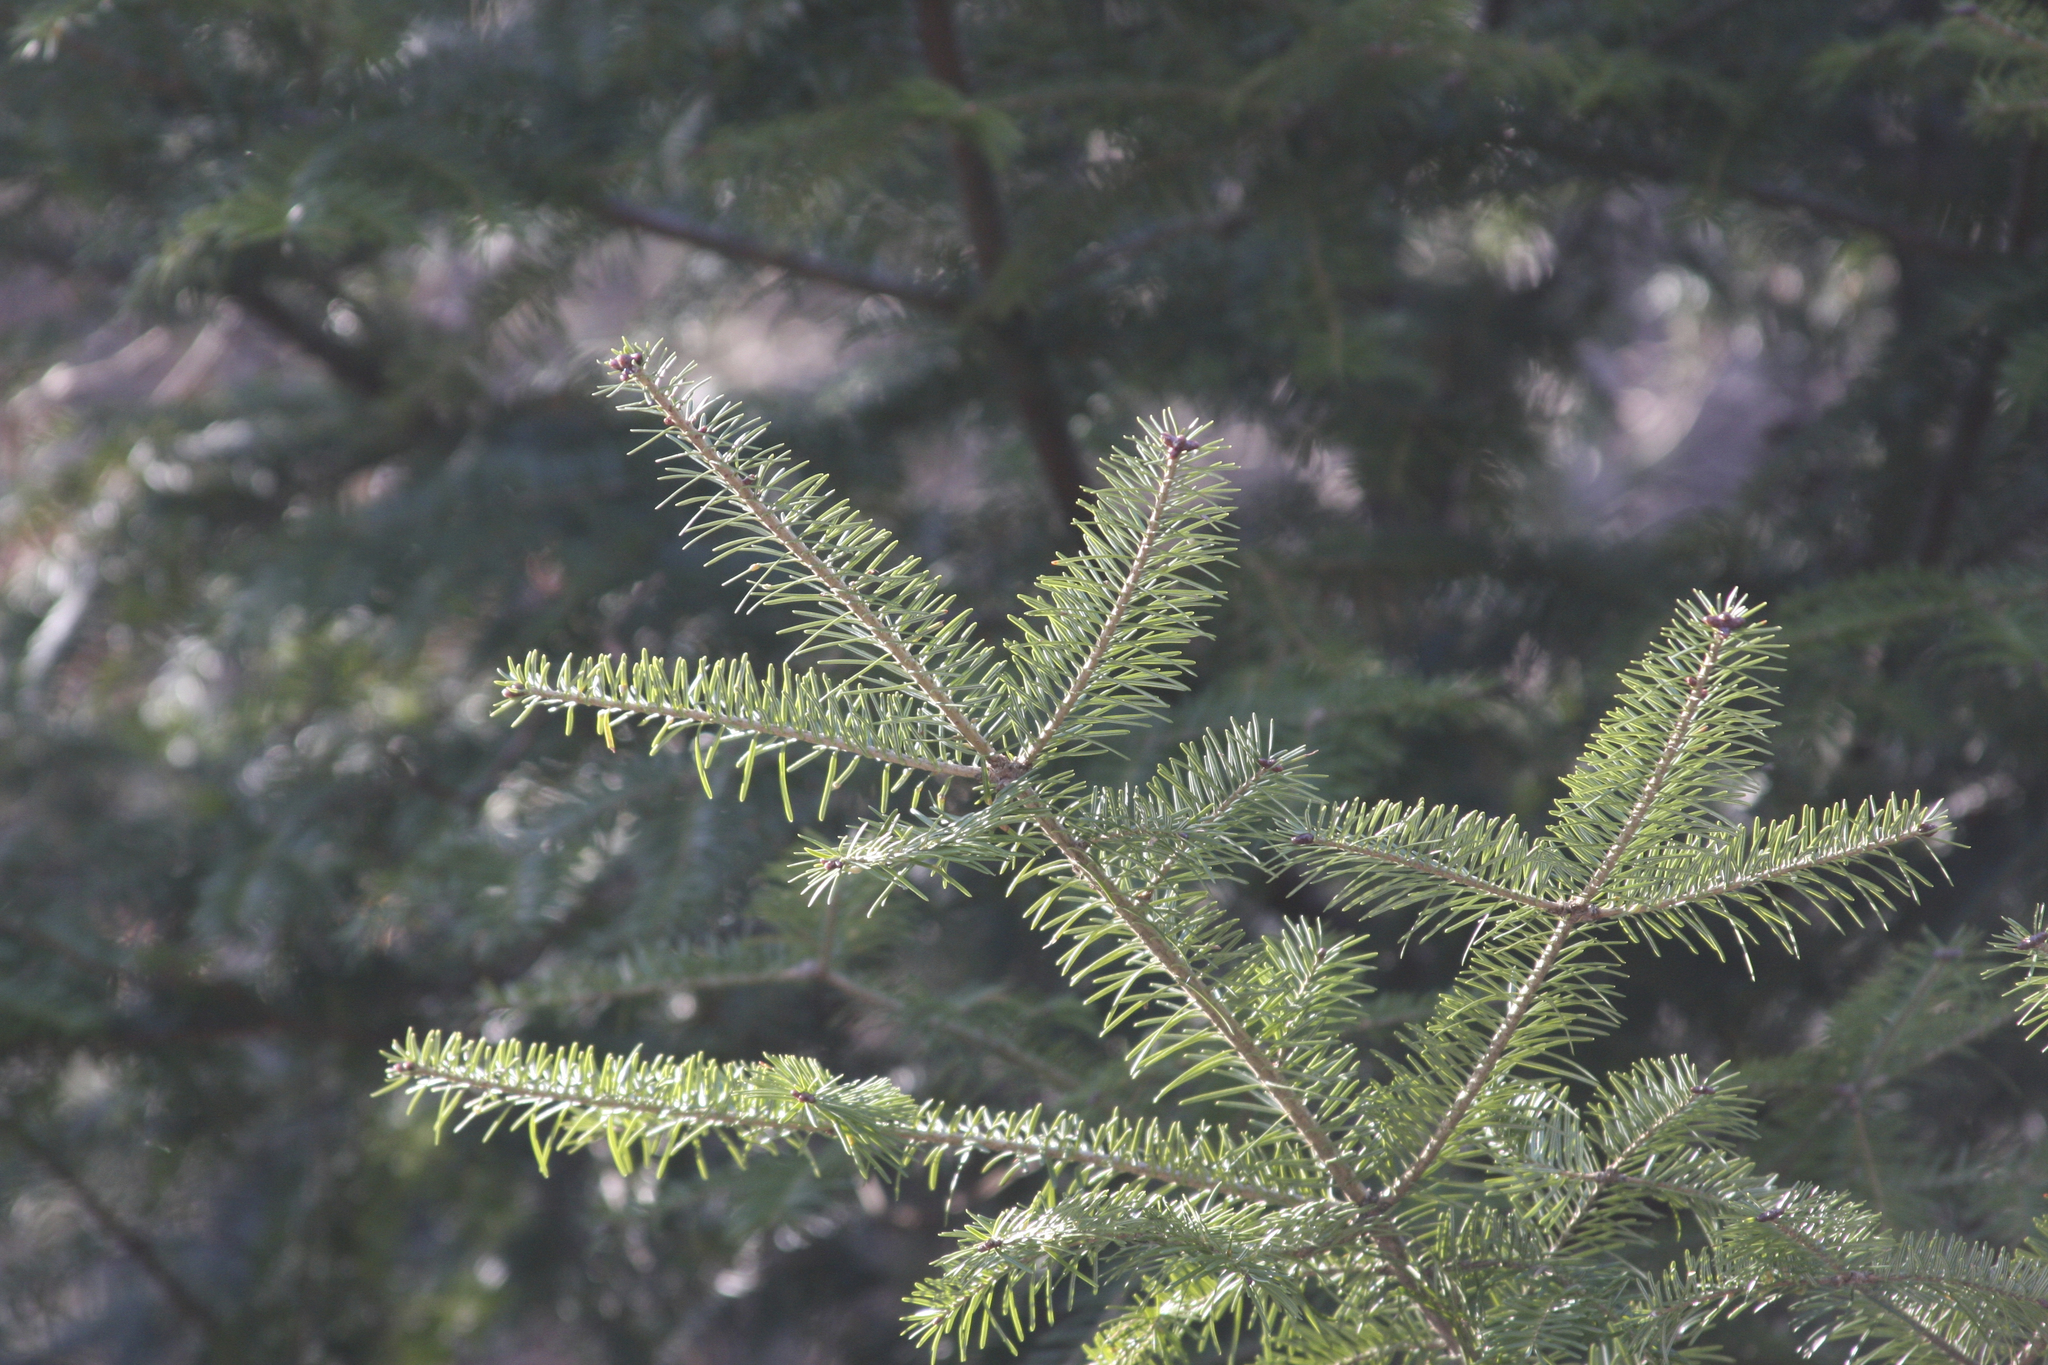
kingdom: Plantae
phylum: Tracheophyta
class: Pinopsida
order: Pinales
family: Pinaceae
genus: Abies
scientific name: Abies balsamea
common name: Balsam fir
